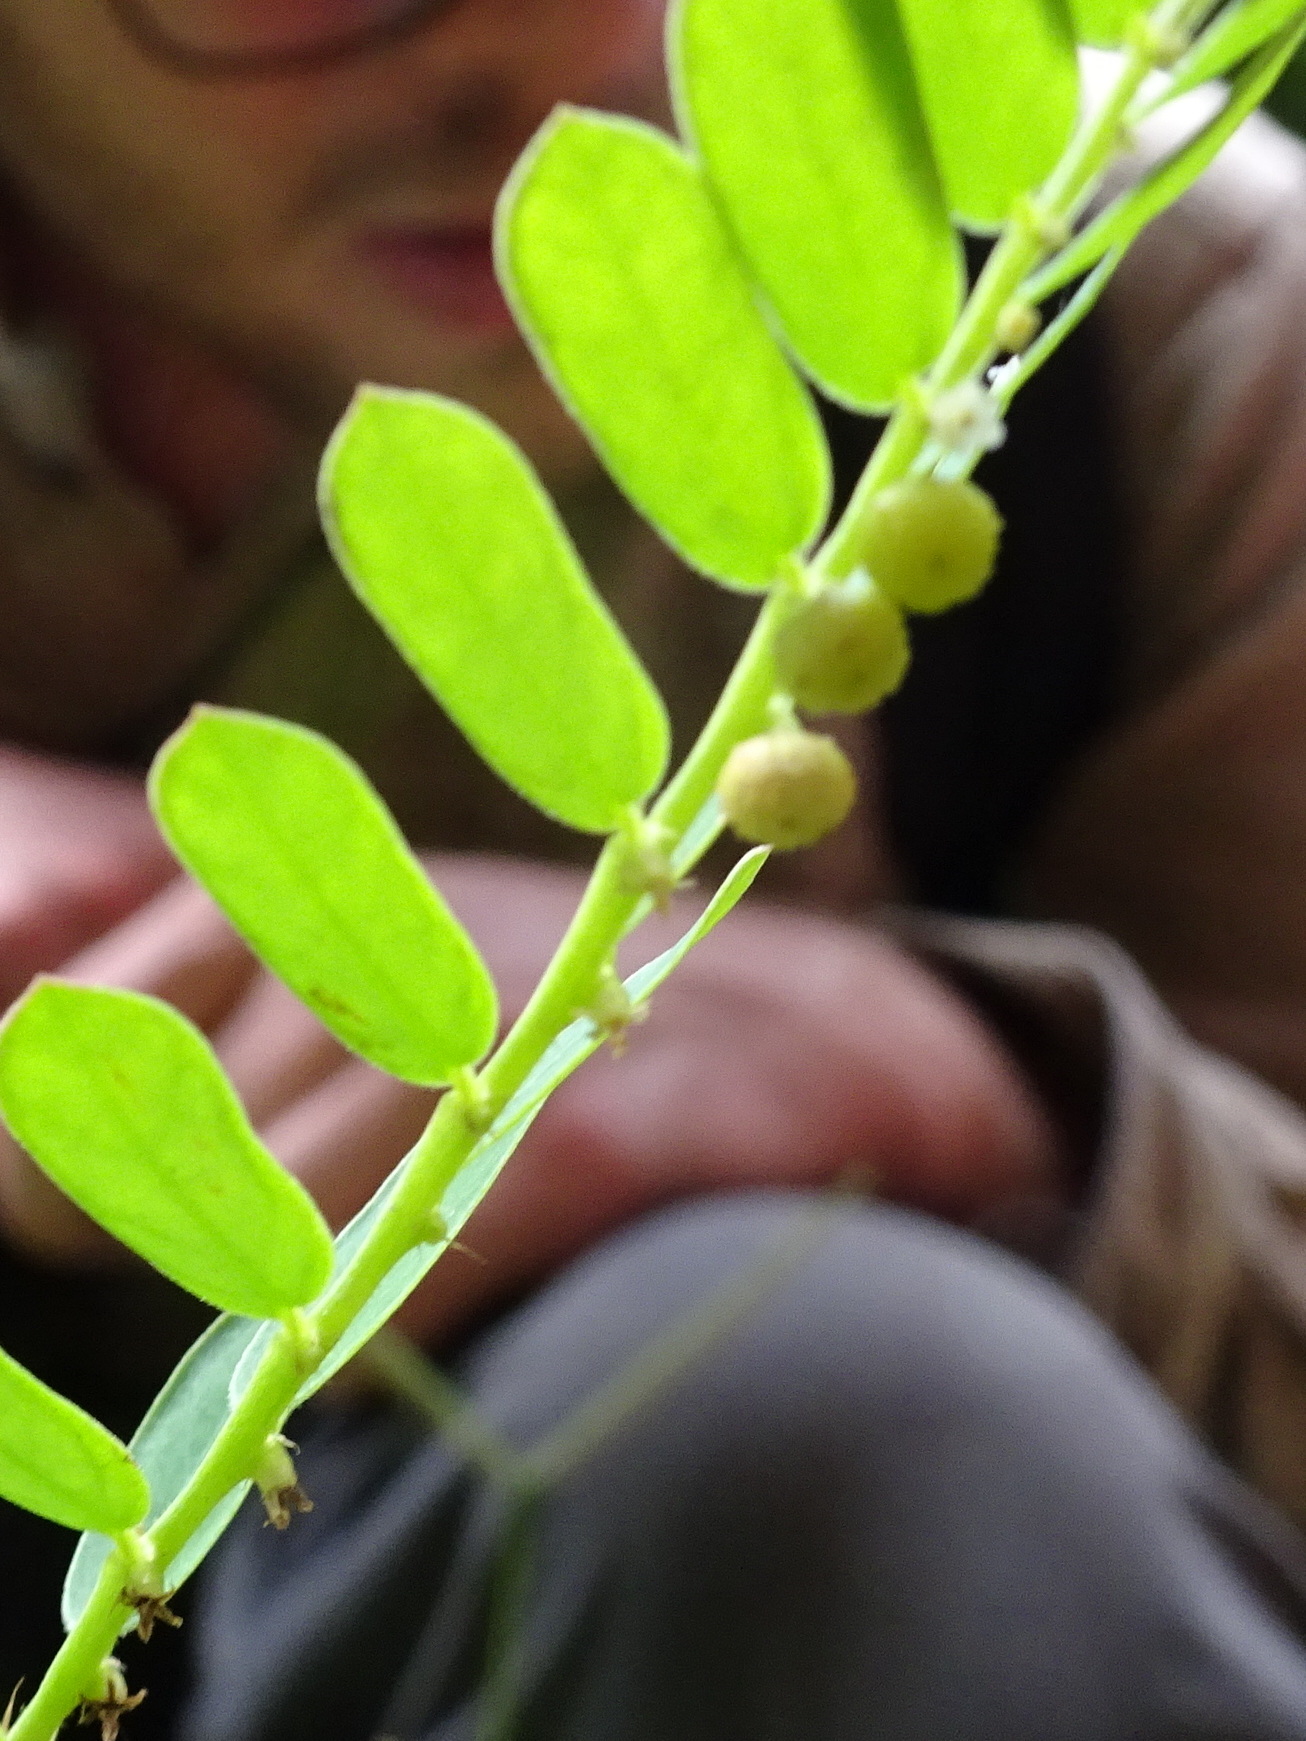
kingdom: Plantae
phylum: Tracheophyta
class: Magnoliopsida
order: Malpighiales
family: Phyllanthaceae
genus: Phyllanthus
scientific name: Phyllanthus urinaria
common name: Chamber bitter
